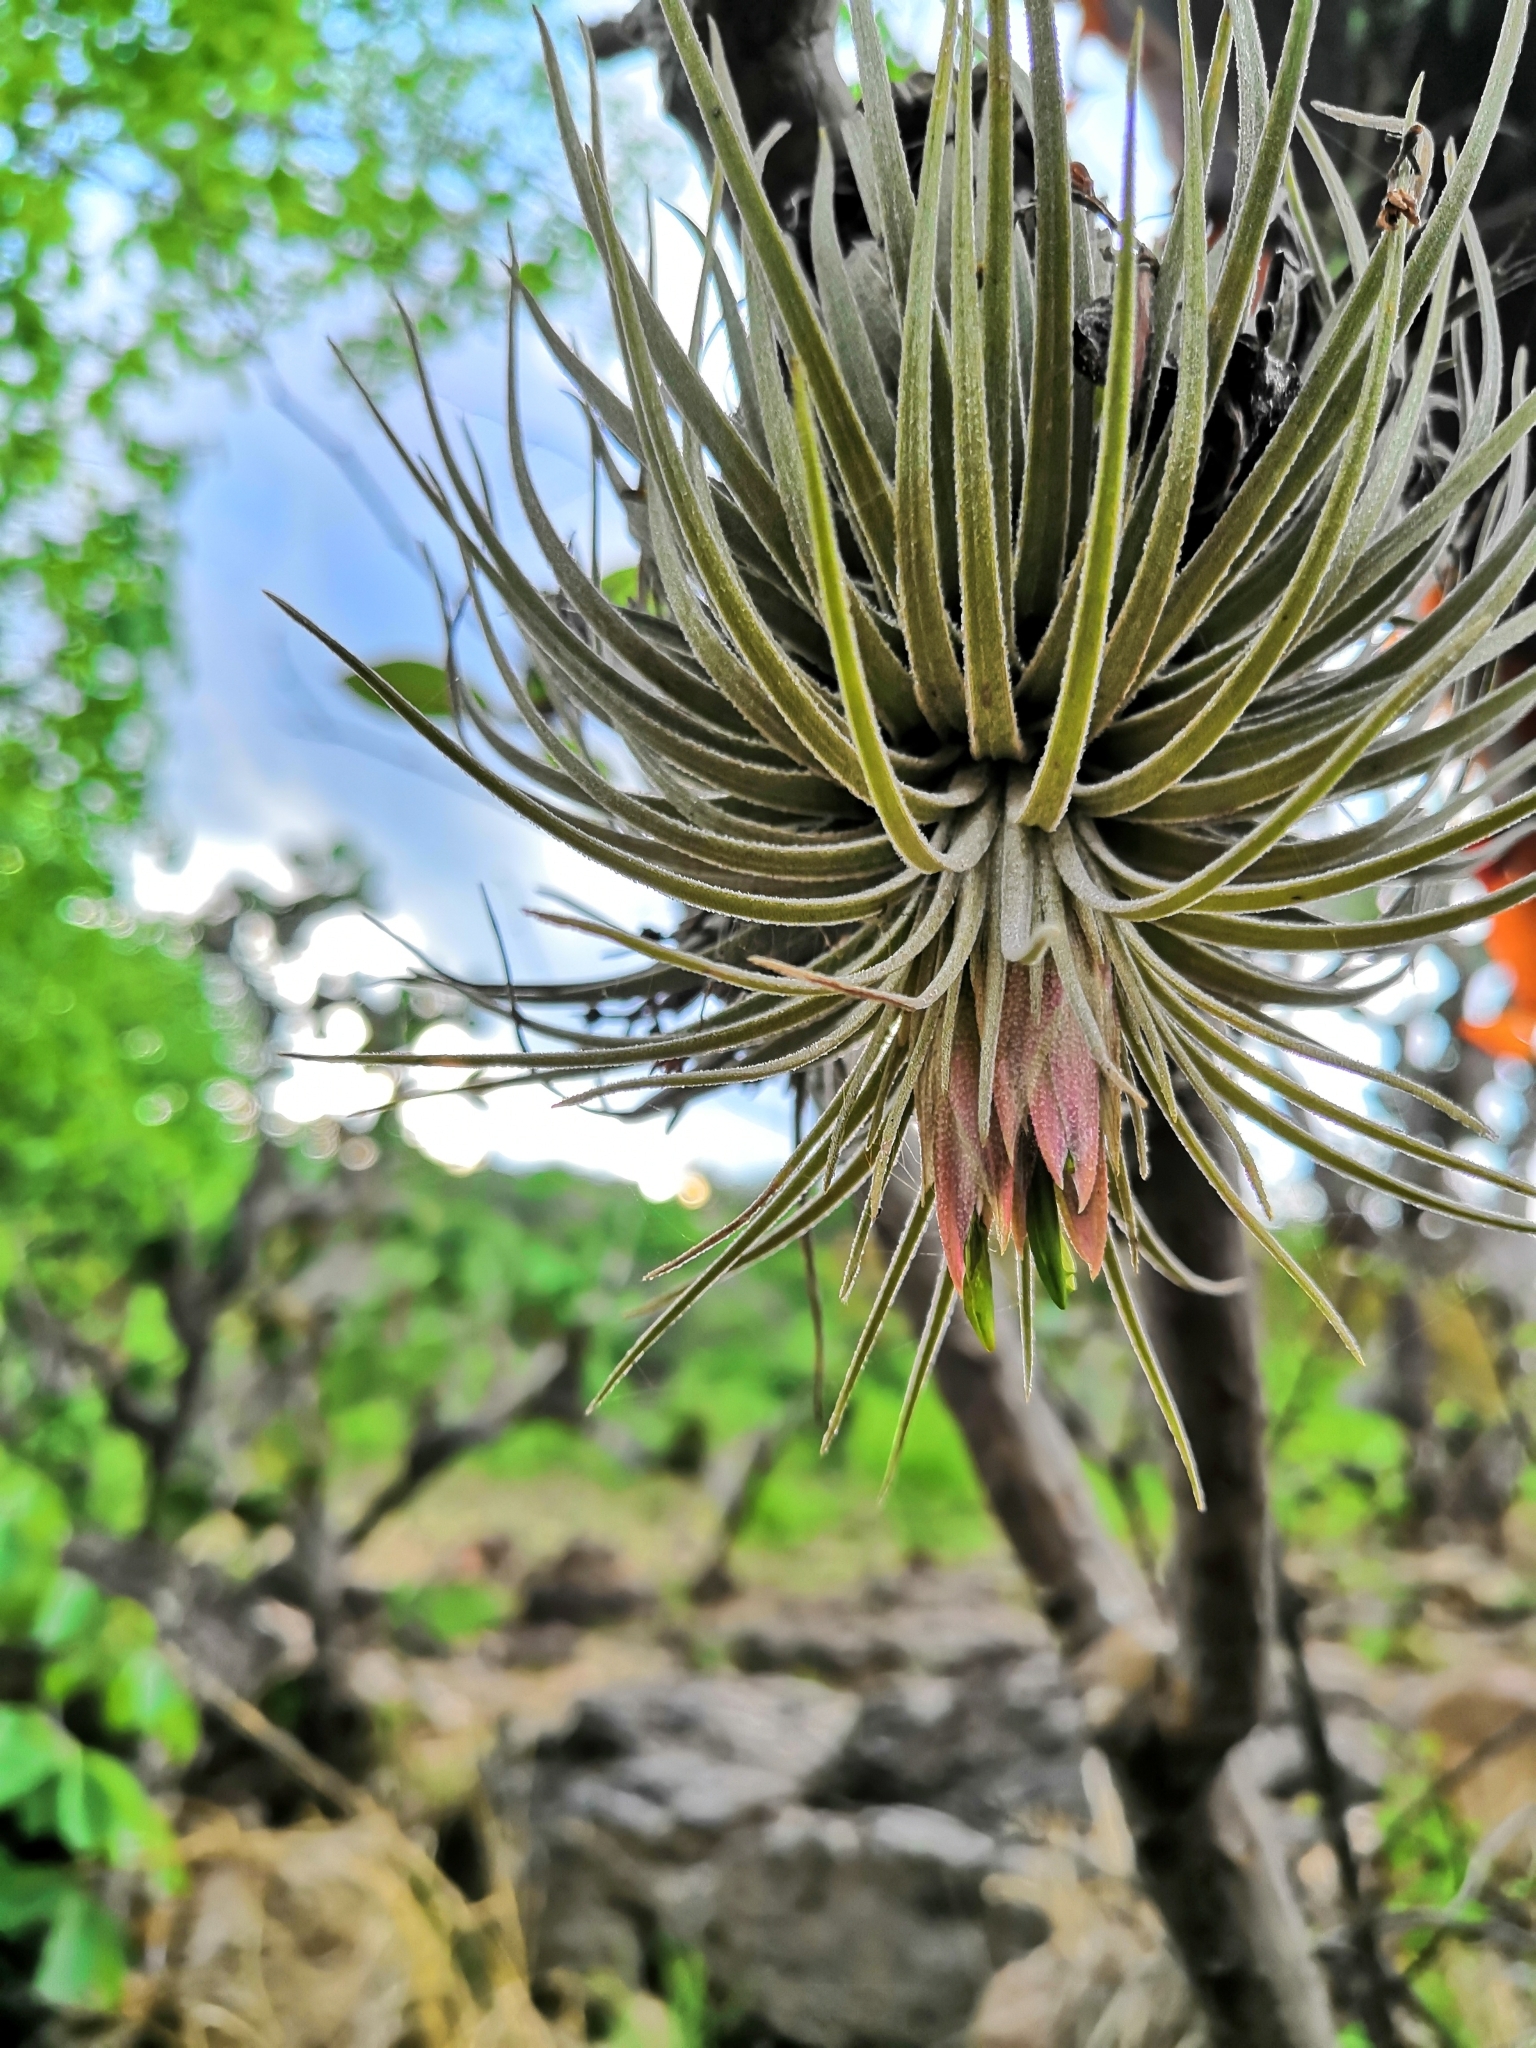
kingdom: Plantae
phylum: Tracheophyta
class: Liliopsida
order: Poales
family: Bromeliaceae
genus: Tillandsia
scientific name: Tillandsia atroviridipetala
